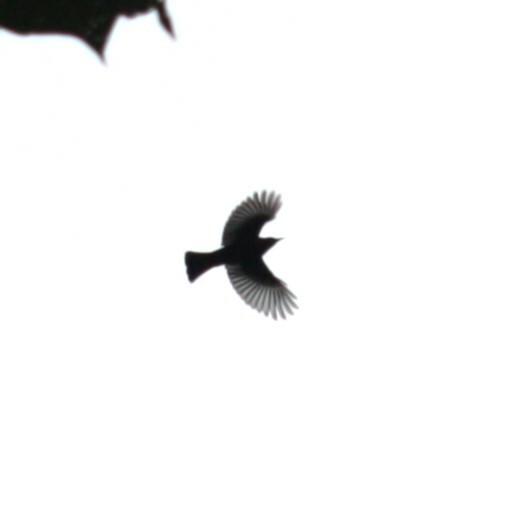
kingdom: Animalia
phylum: Chordata
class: Aves
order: Passeriformes
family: Pycnonotidae
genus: Hypsipetes
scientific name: Hypsipetes leucocephalus
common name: Black bulbul
